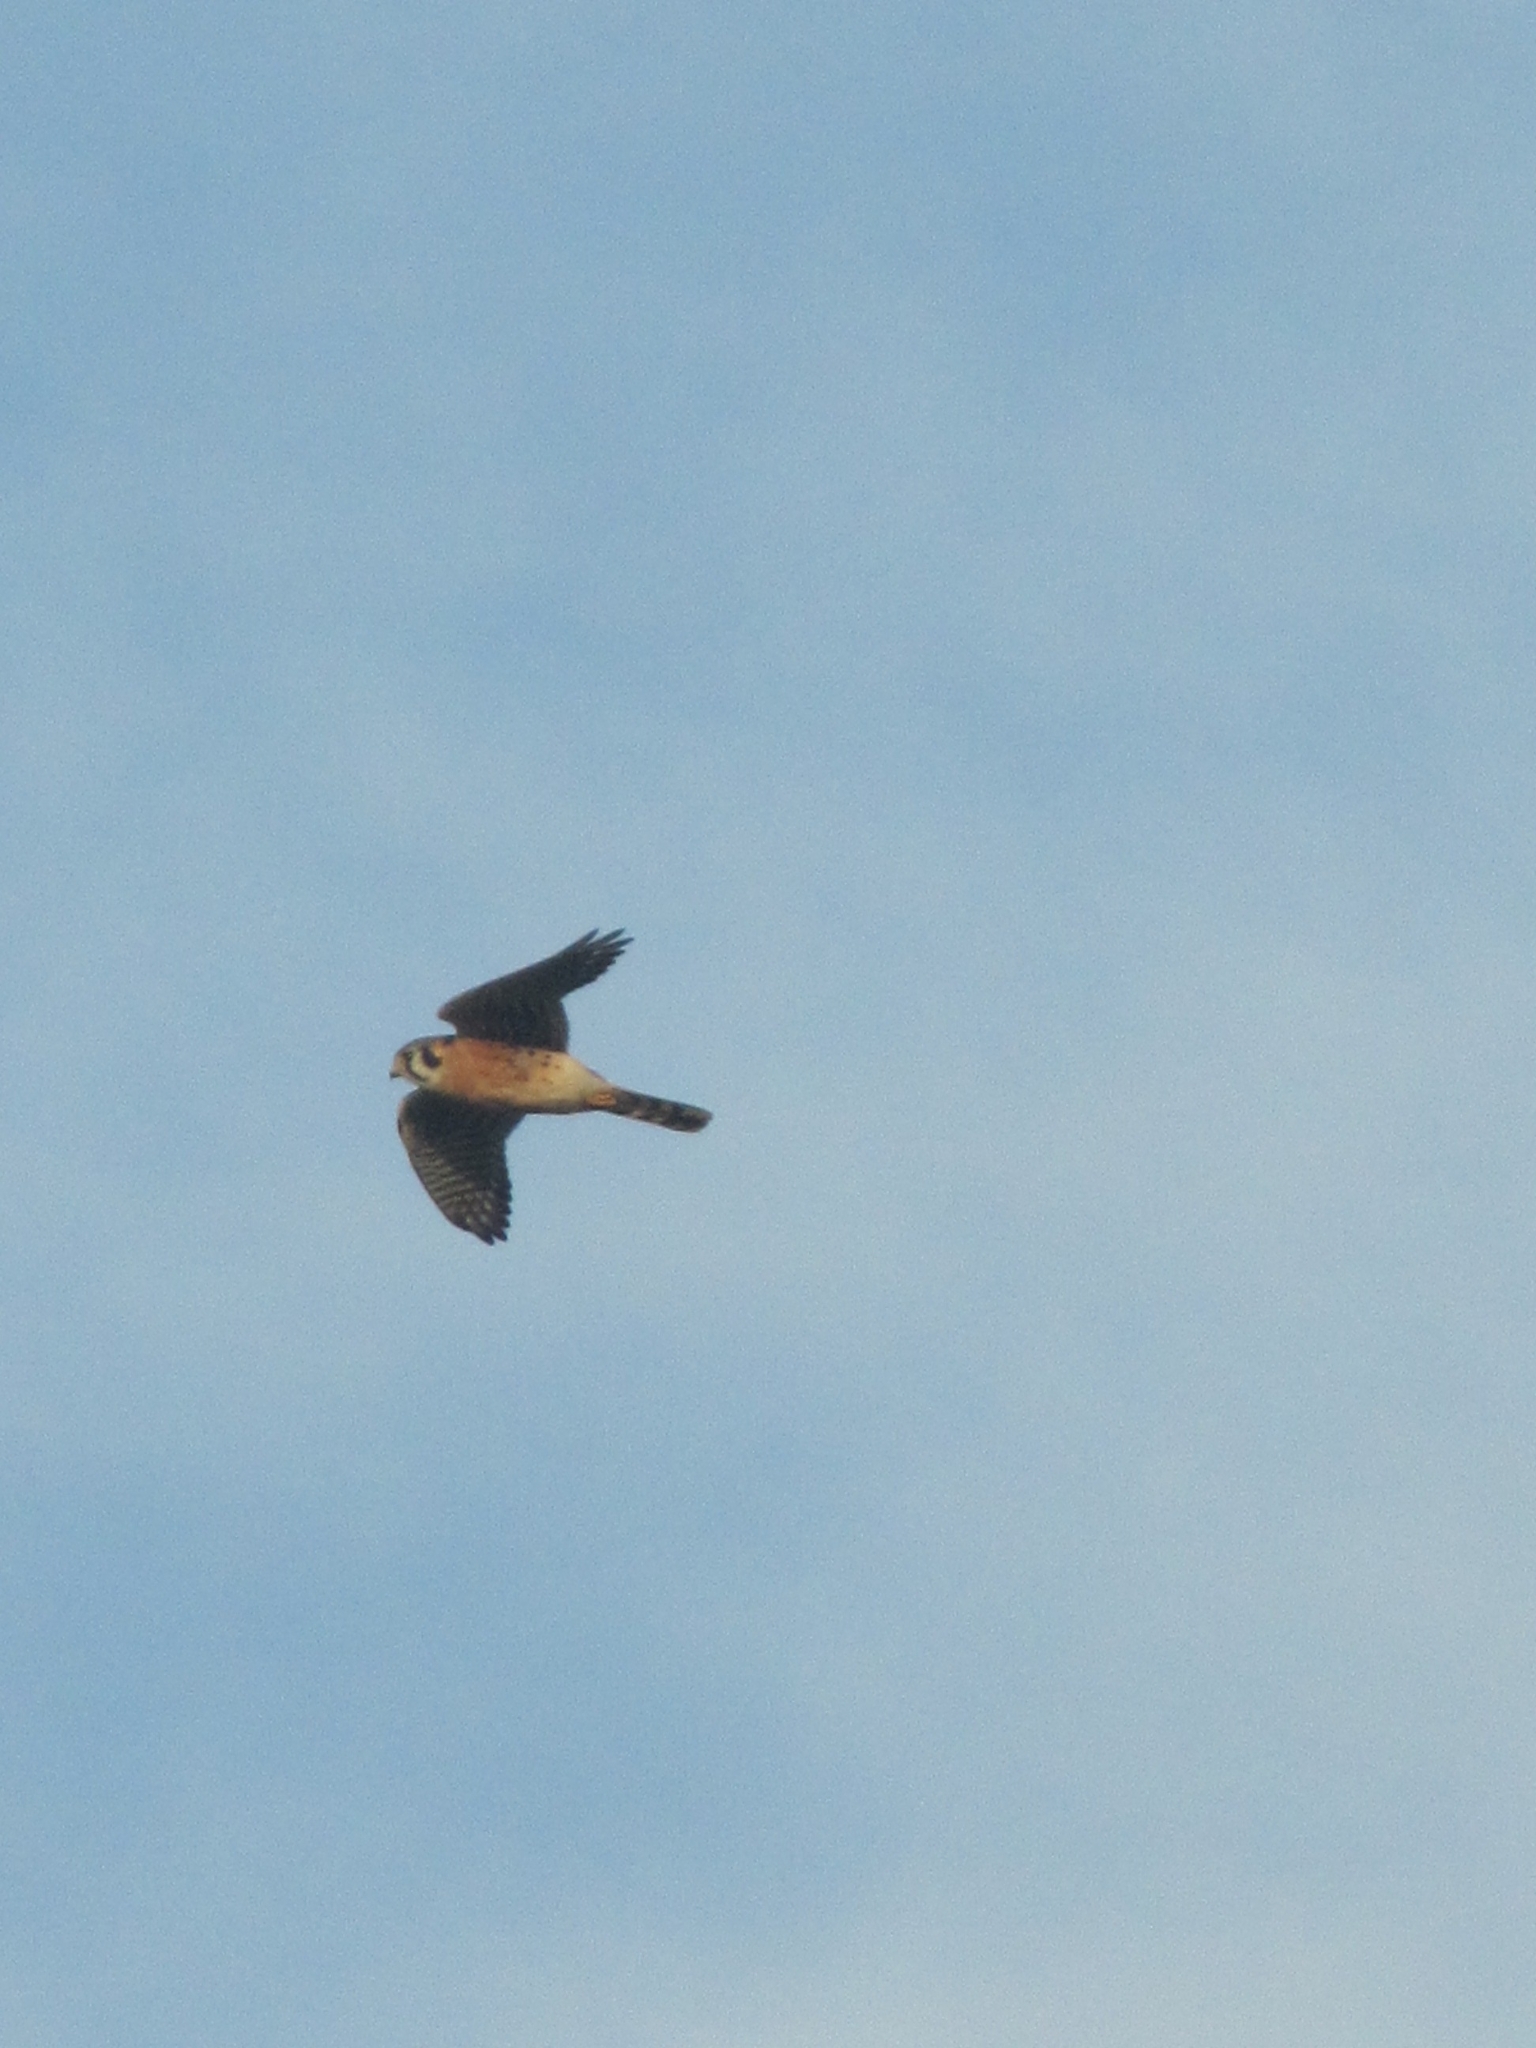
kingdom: Animalia
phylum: Chordata
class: Aves
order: Falconiformes
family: Falconidae
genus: Falco
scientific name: Falco sparverius
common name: American kestrel
